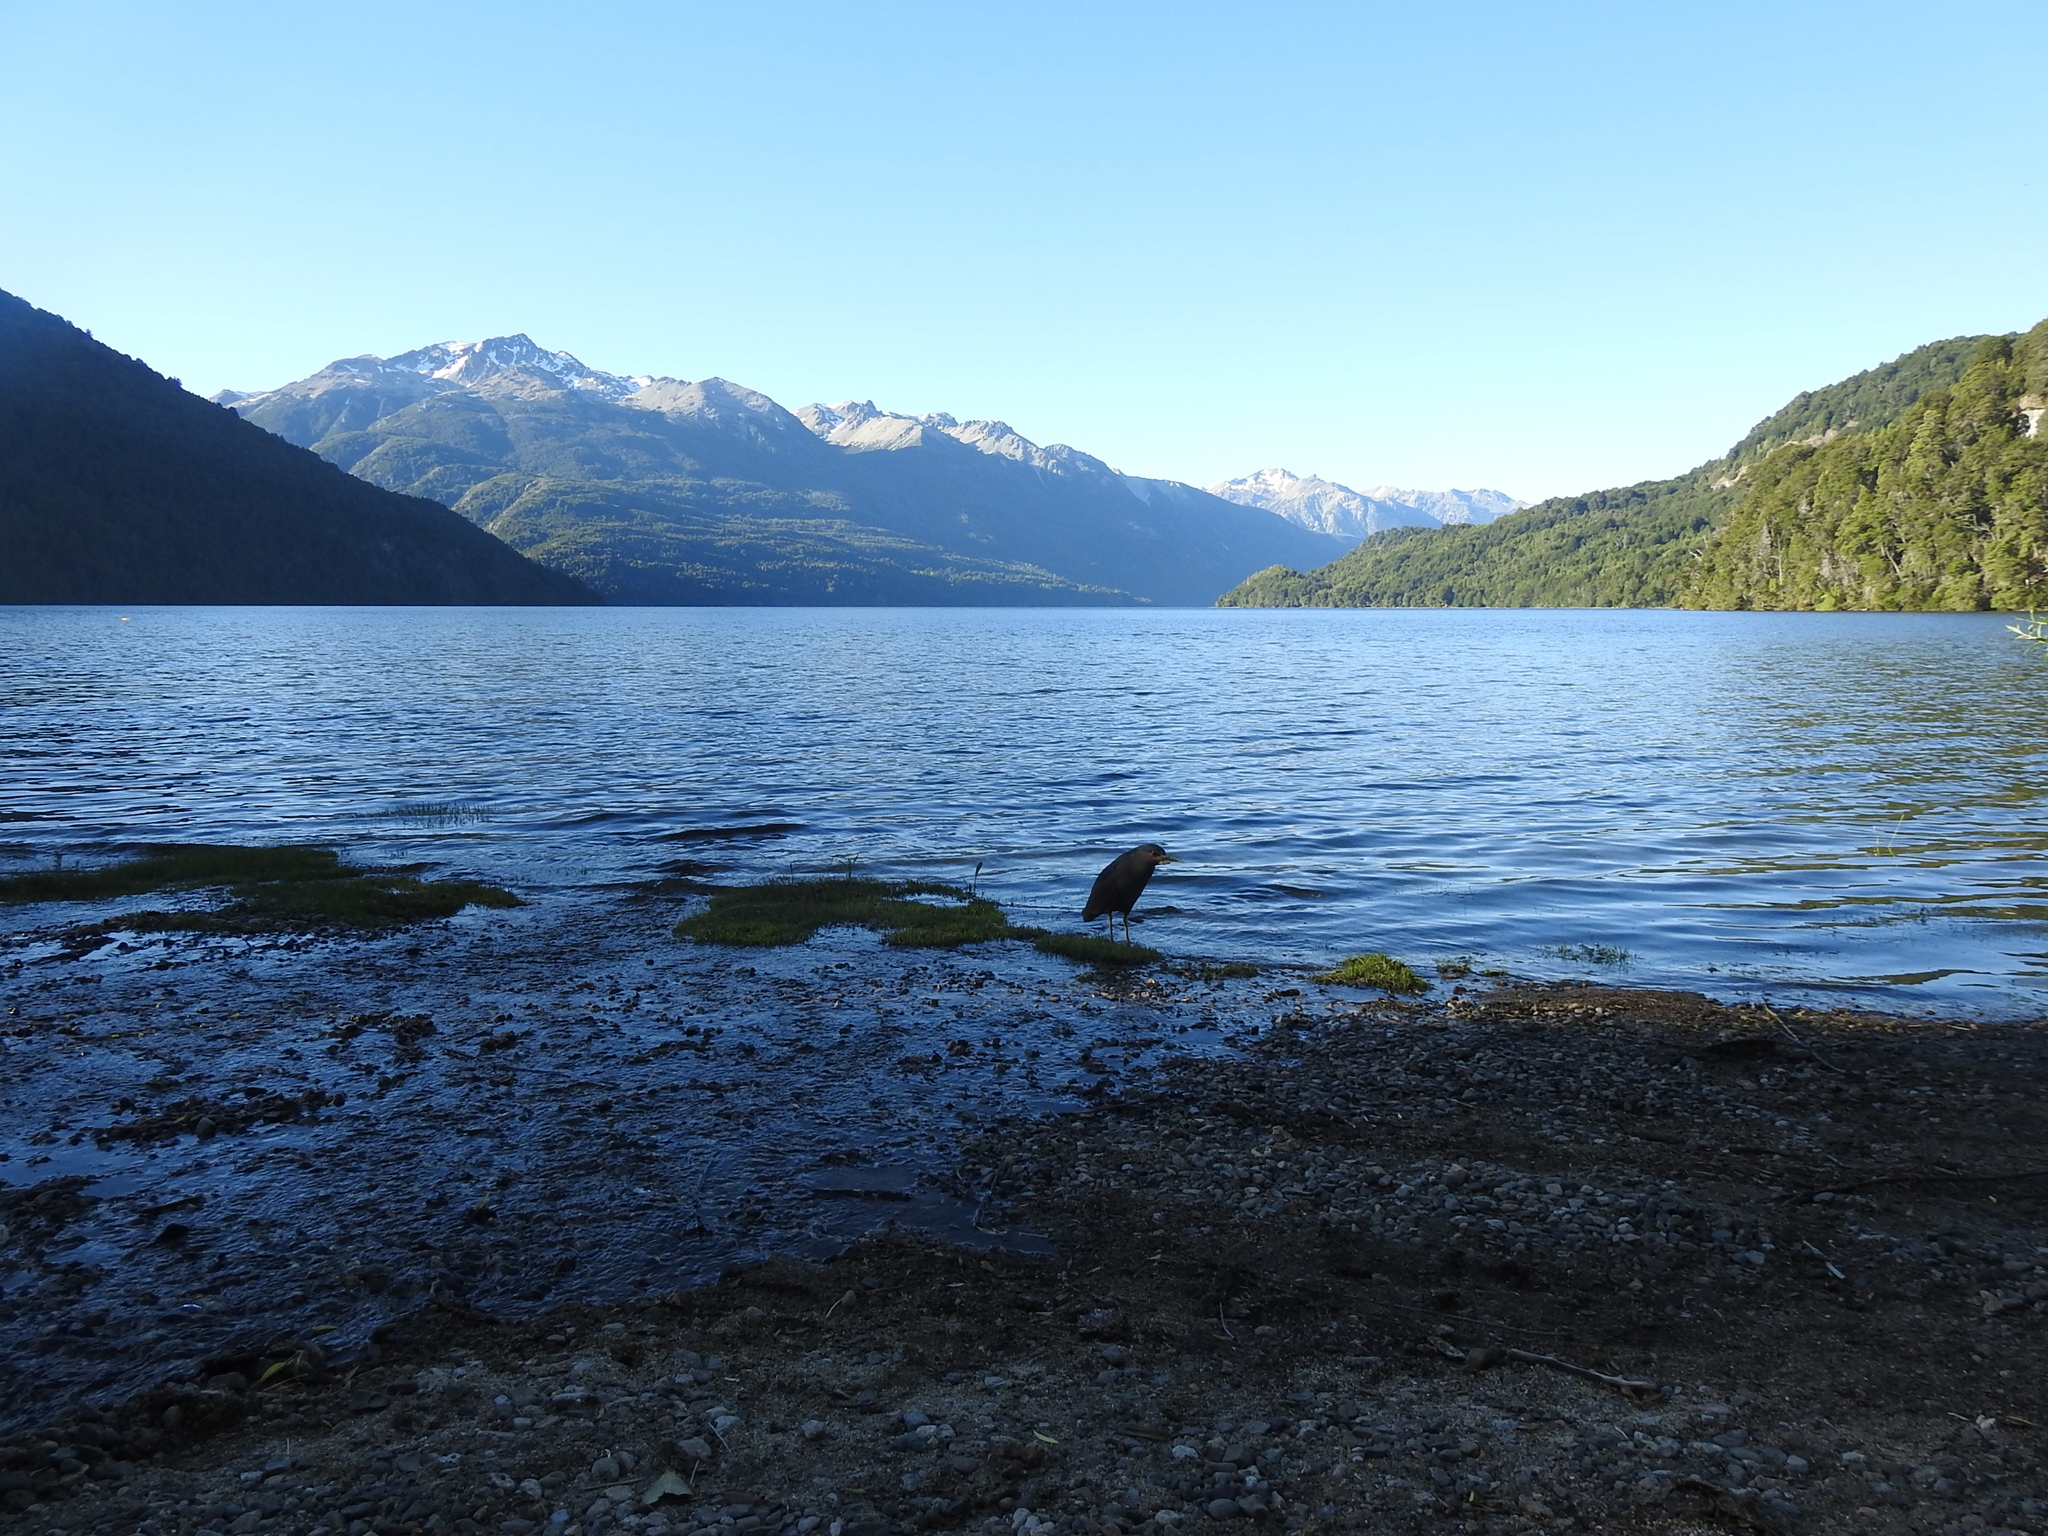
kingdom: Animalia
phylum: Chordata
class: Aves
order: Pelecaniformes
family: Ardeidae
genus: Nycticorax
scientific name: Nycticorax nycticorax
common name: Black-crowned night heron
